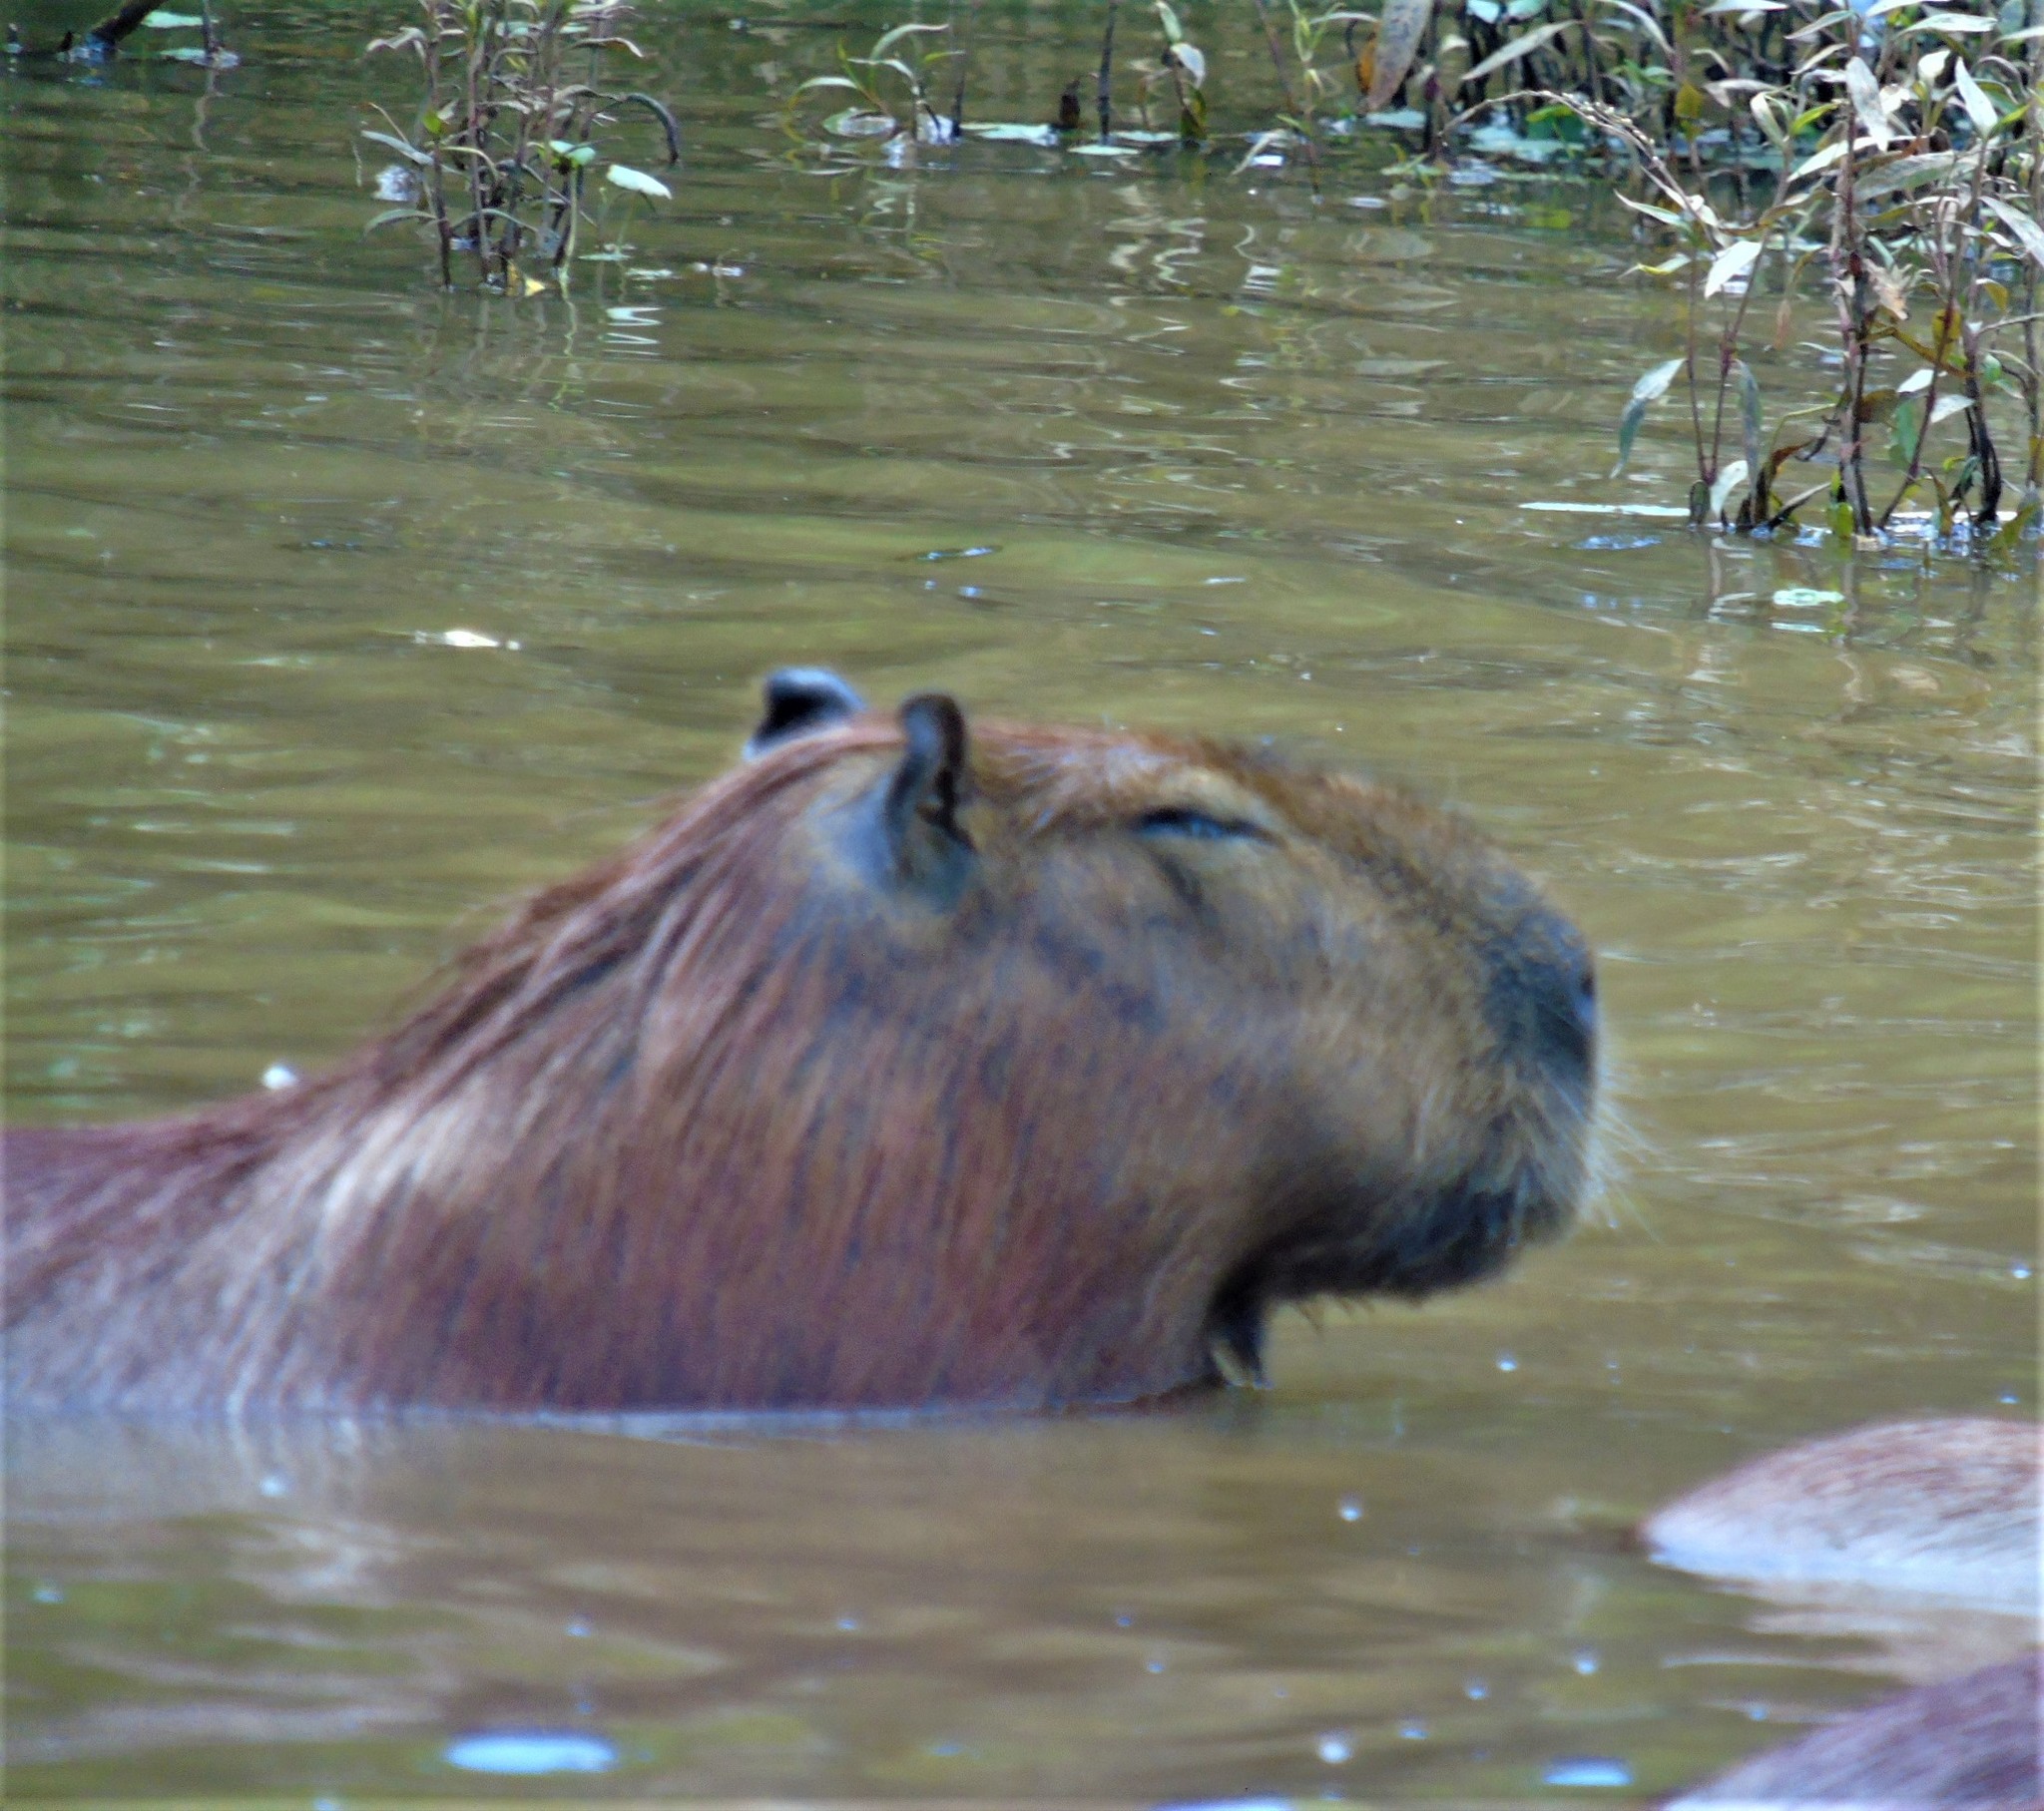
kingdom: Animalia
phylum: Chordata
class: Mammalia
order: Rodentia
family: Caviidae
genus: Hydrochoerus
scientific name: Hydrochoerus hydrochaeris
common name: Capybara
